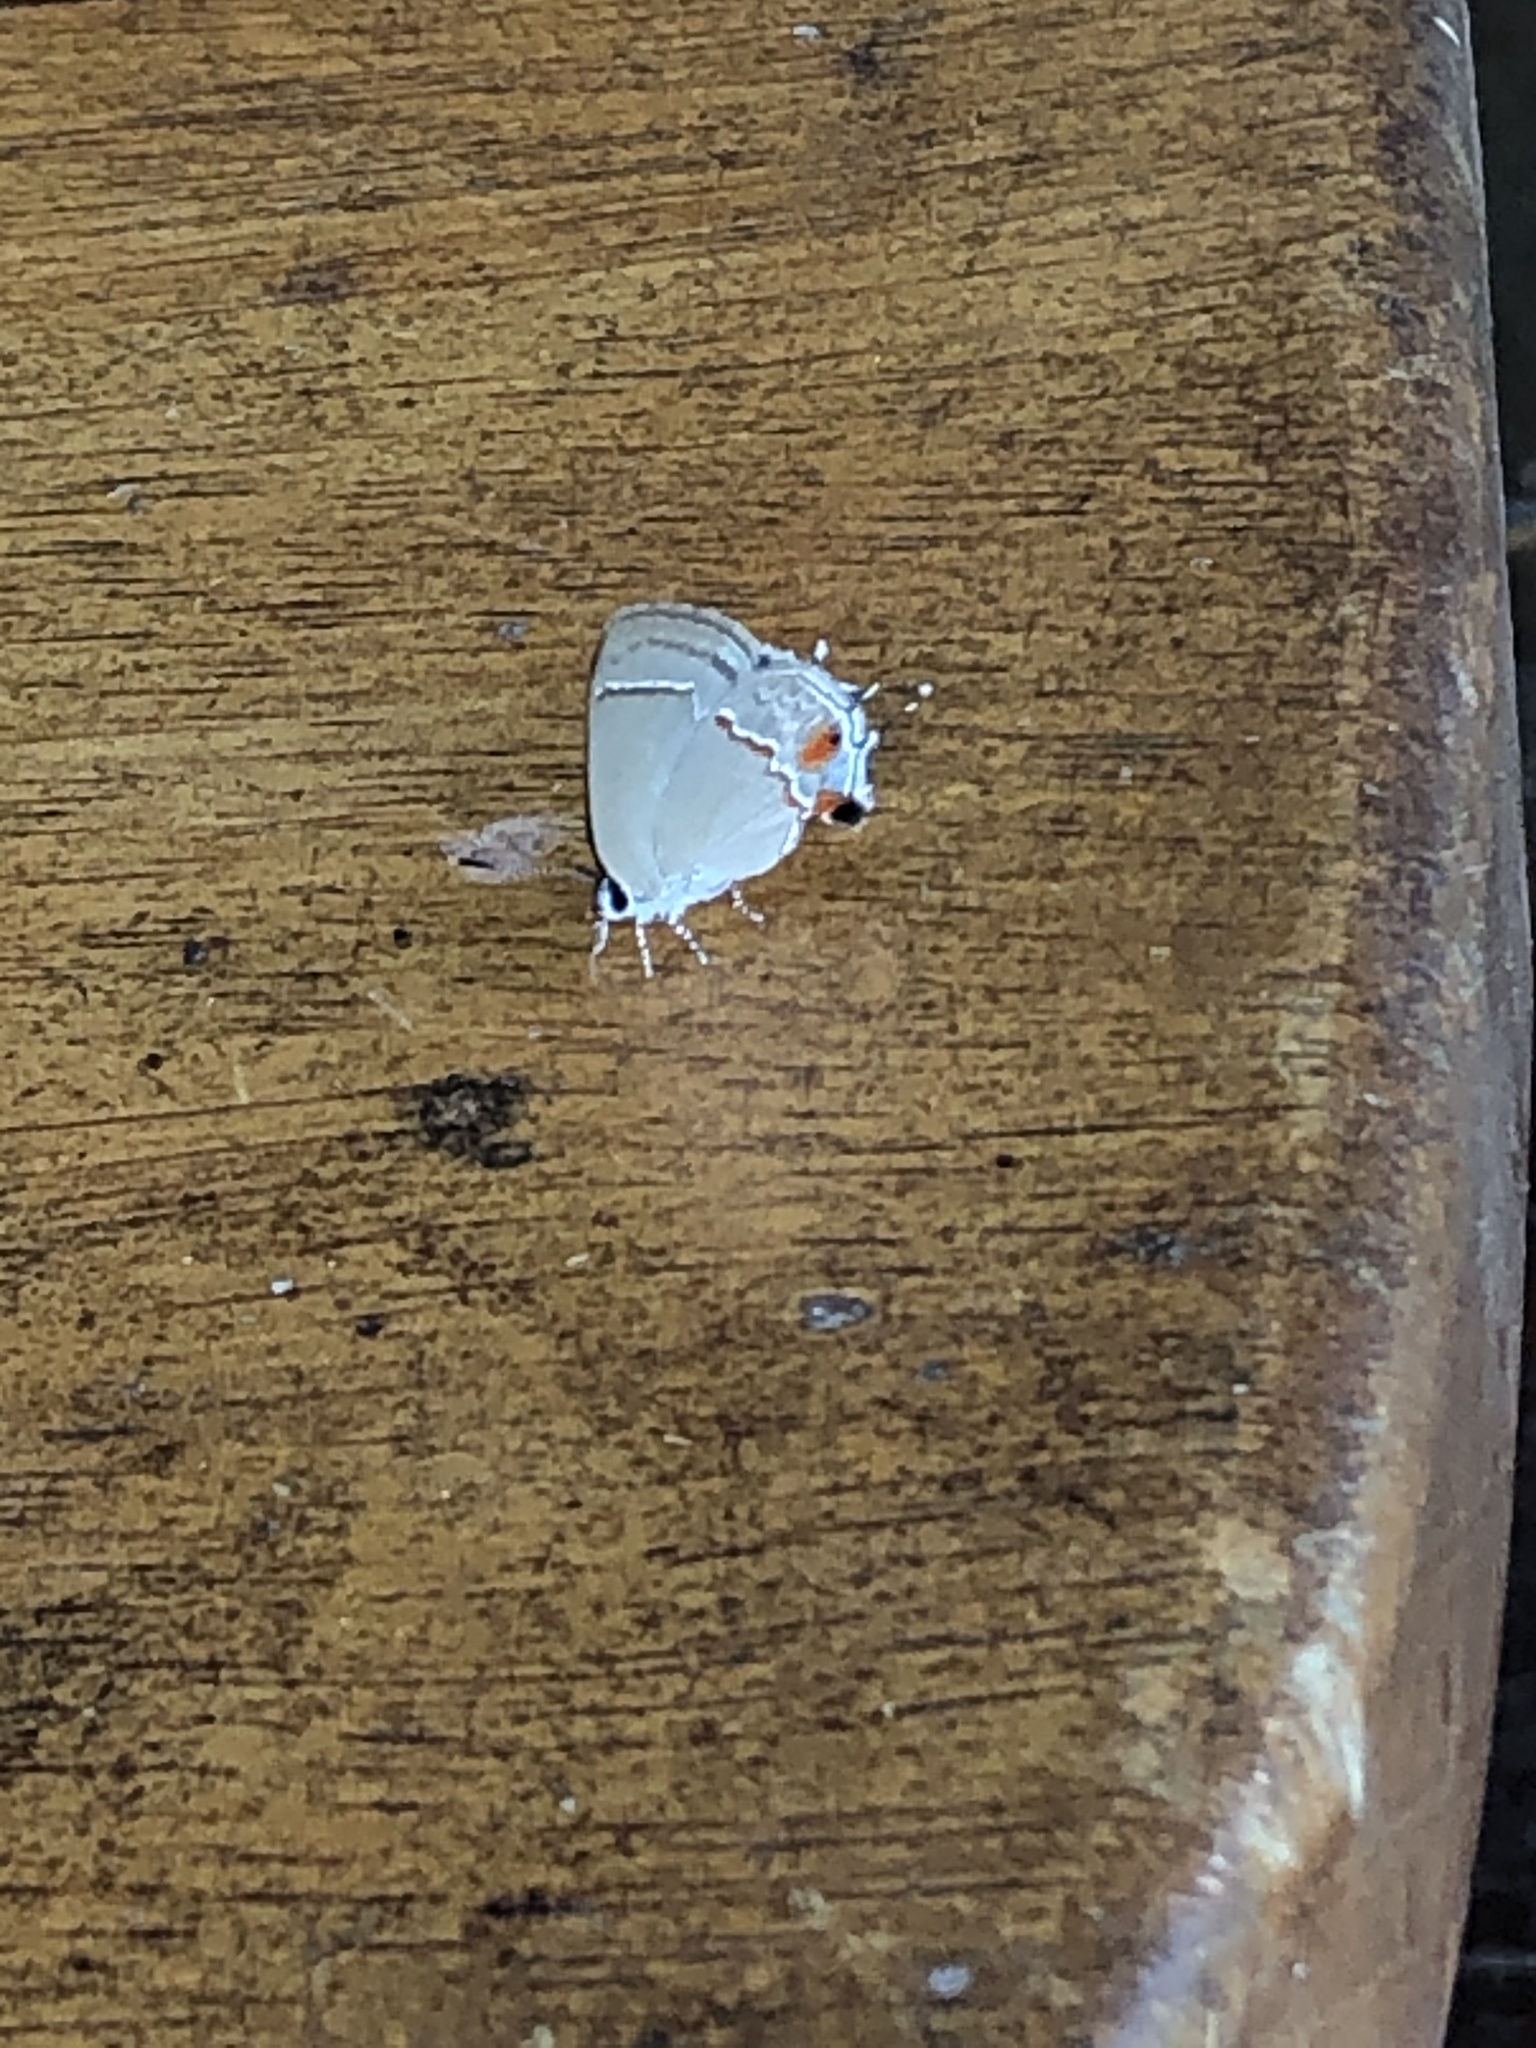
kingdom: Animalia
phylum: Arthropoda
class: Insecta
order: Lepidoptera
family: Lycaenidae
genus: Thecla
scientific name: Thecla ophia
